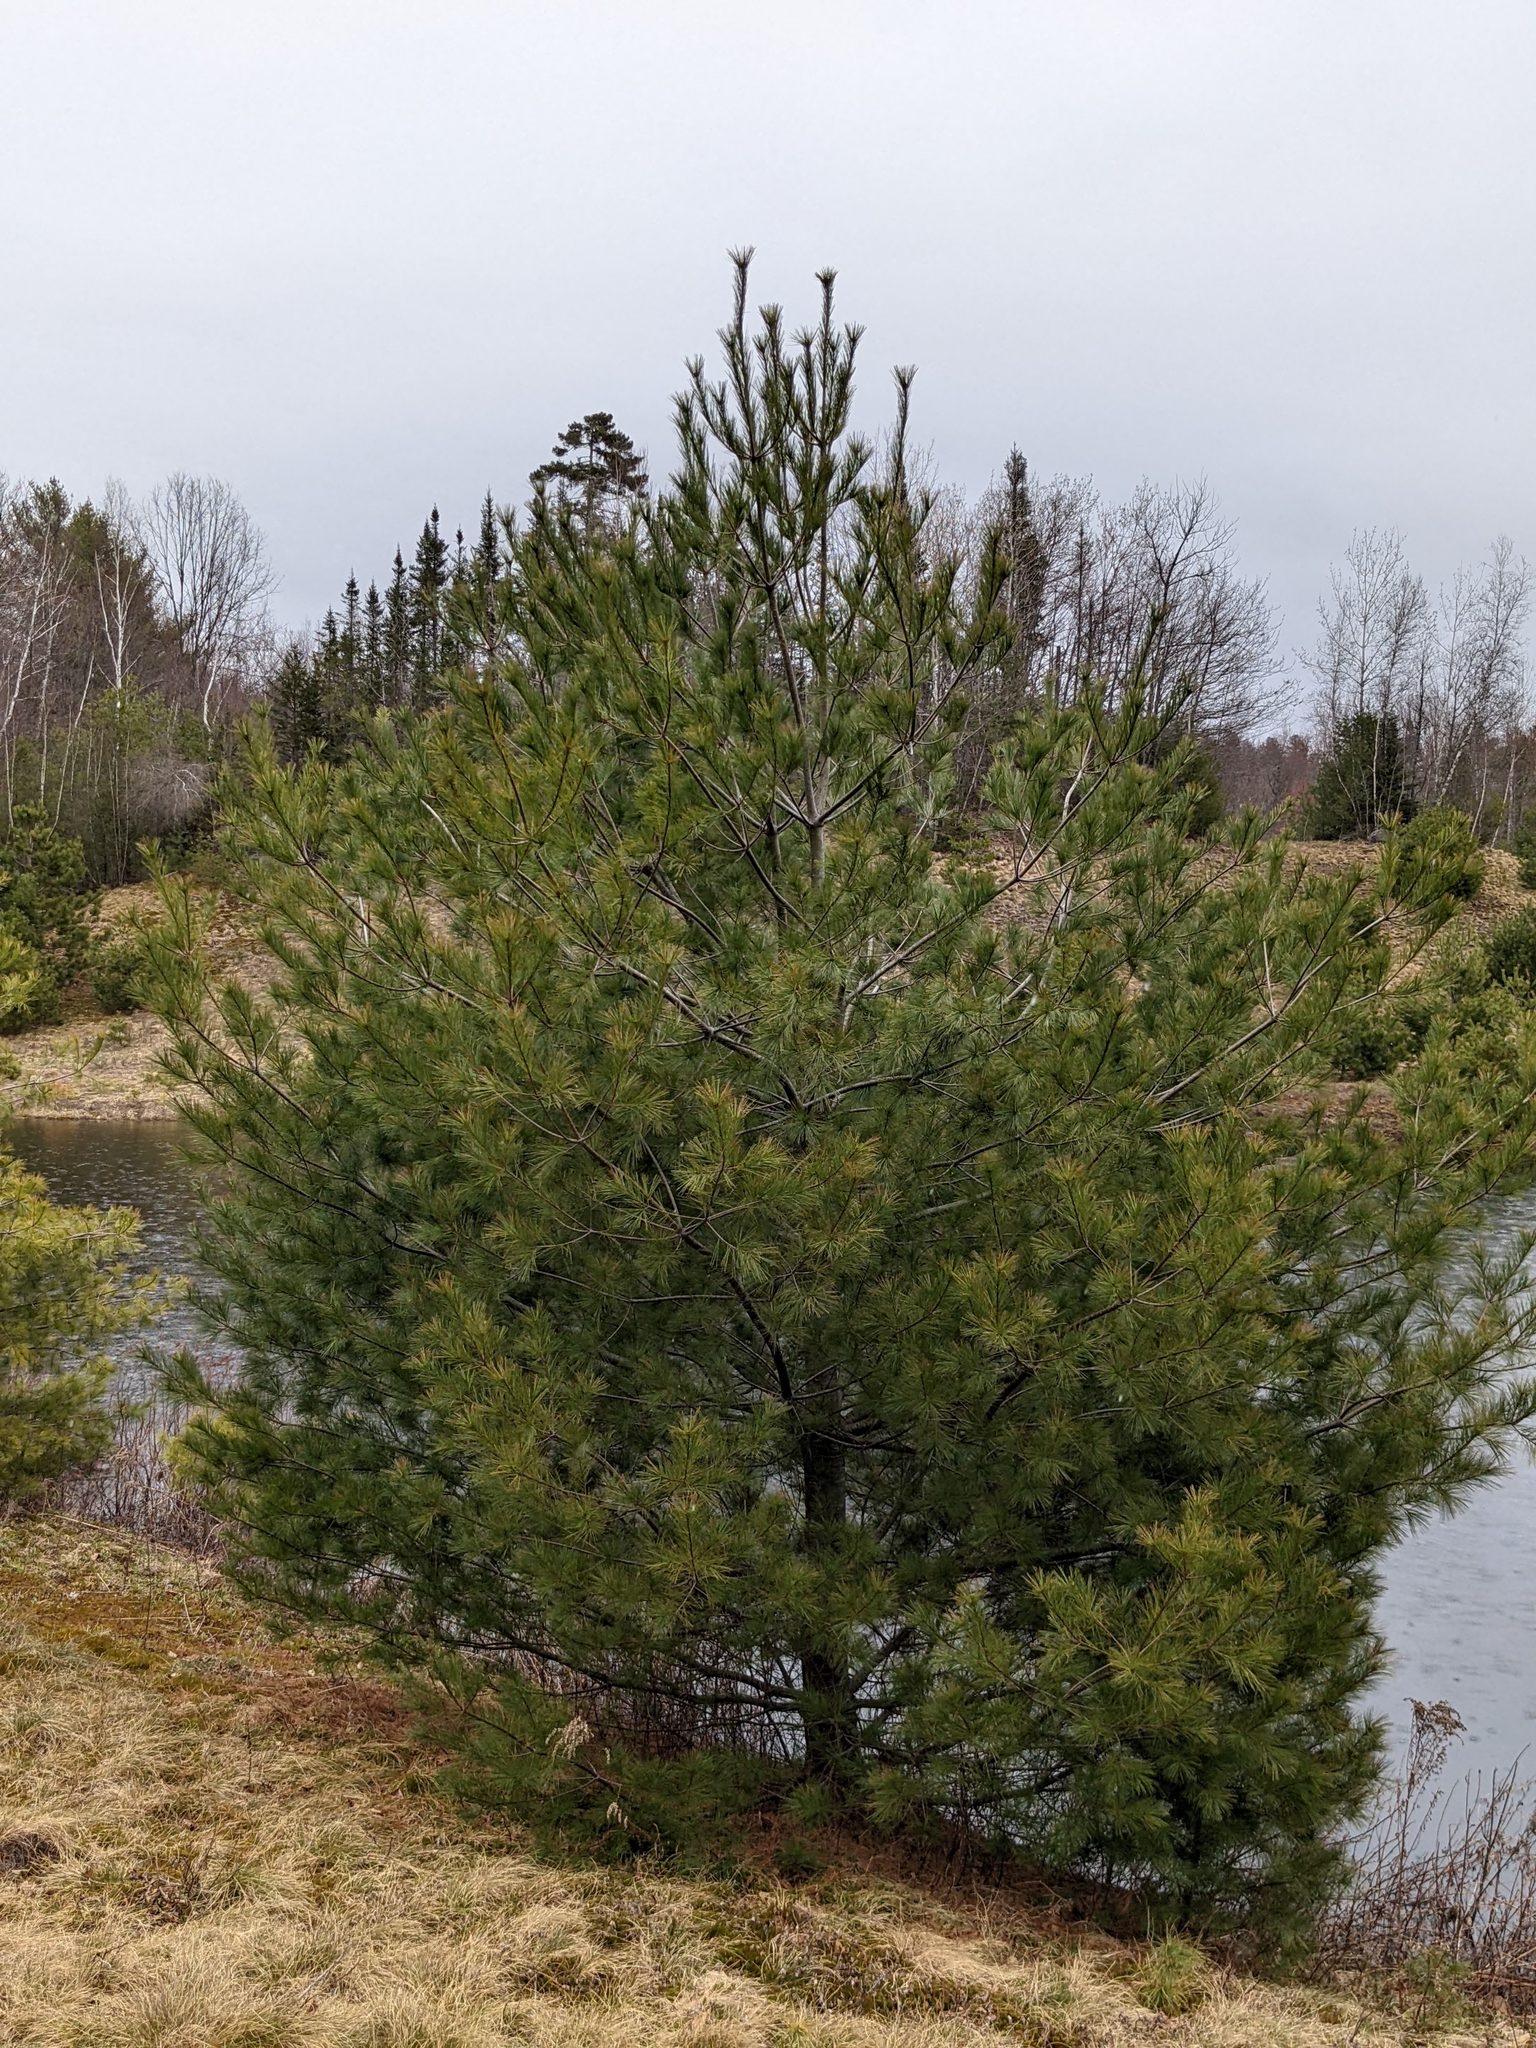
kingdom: Plantae
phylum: Tracheophyta
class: Pinopsida
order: Pinales
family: Pinaceae
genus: Pinus
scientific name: Pinus strobus
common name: Weymouth pine
